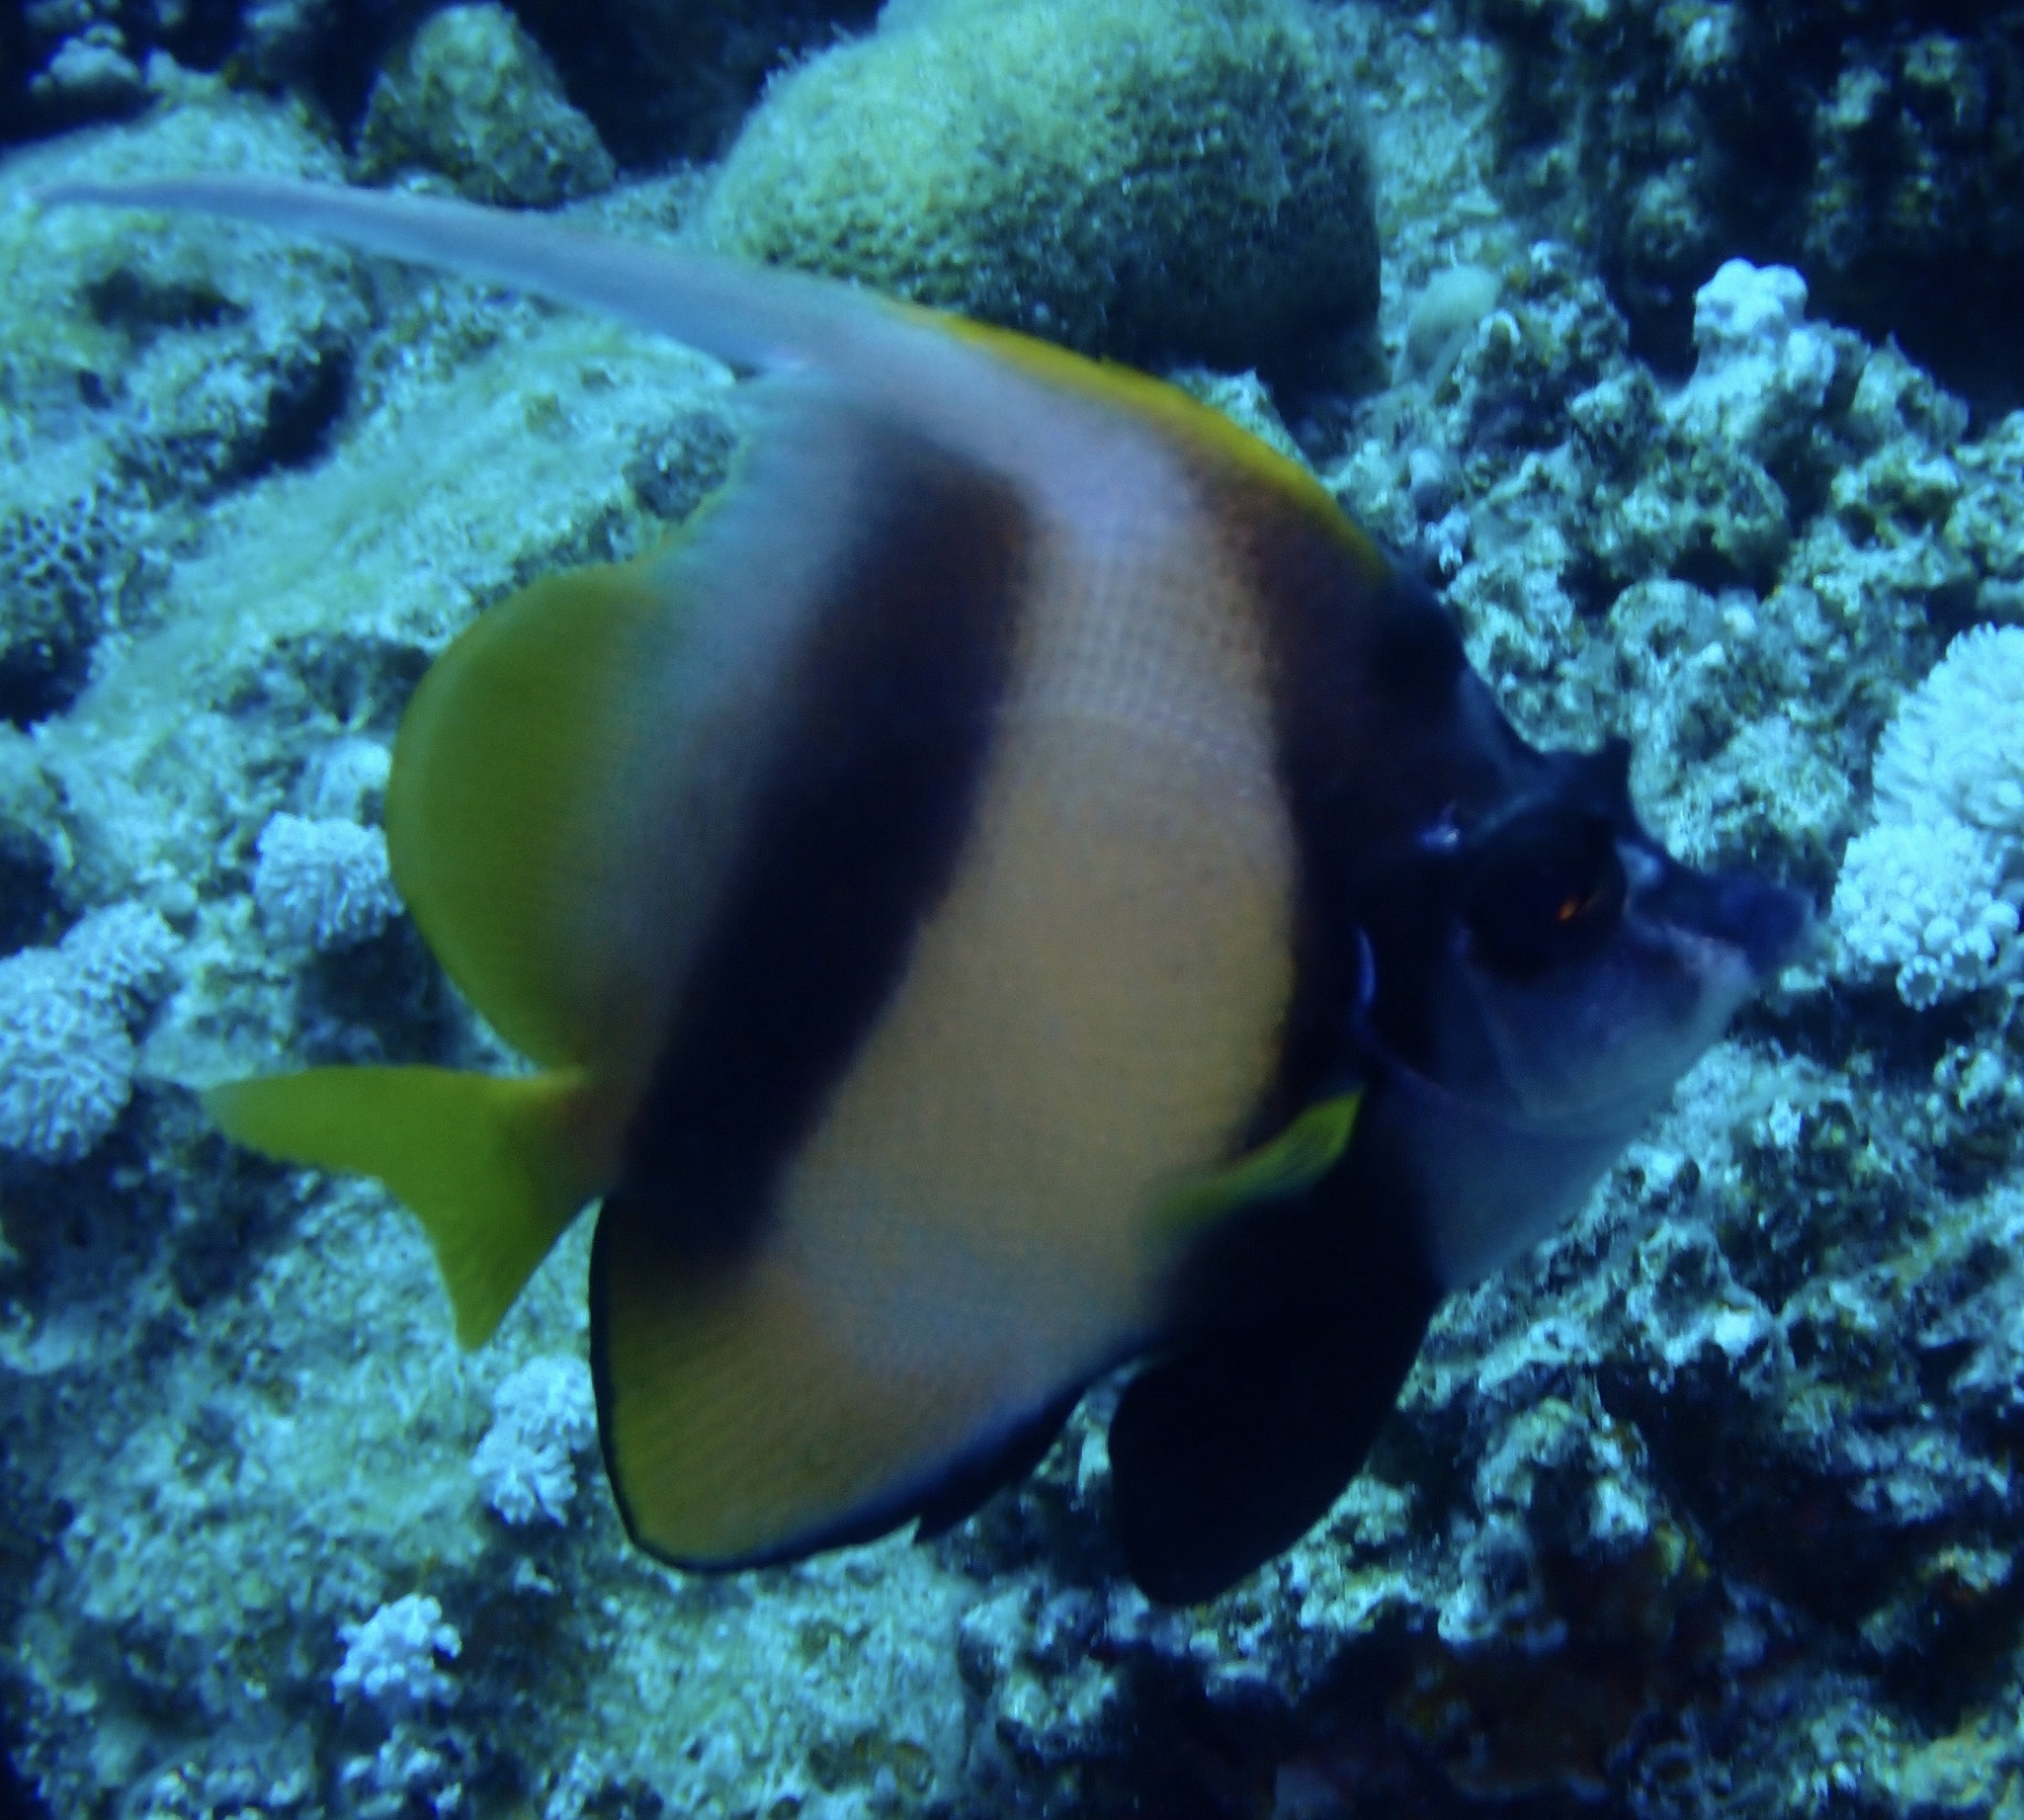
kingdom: Animalia
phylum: Chordata
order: Perciformes
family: Chaetodontidae
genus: Heniochus
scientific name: Heniochus intermedius
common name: Red sea bannerfish
